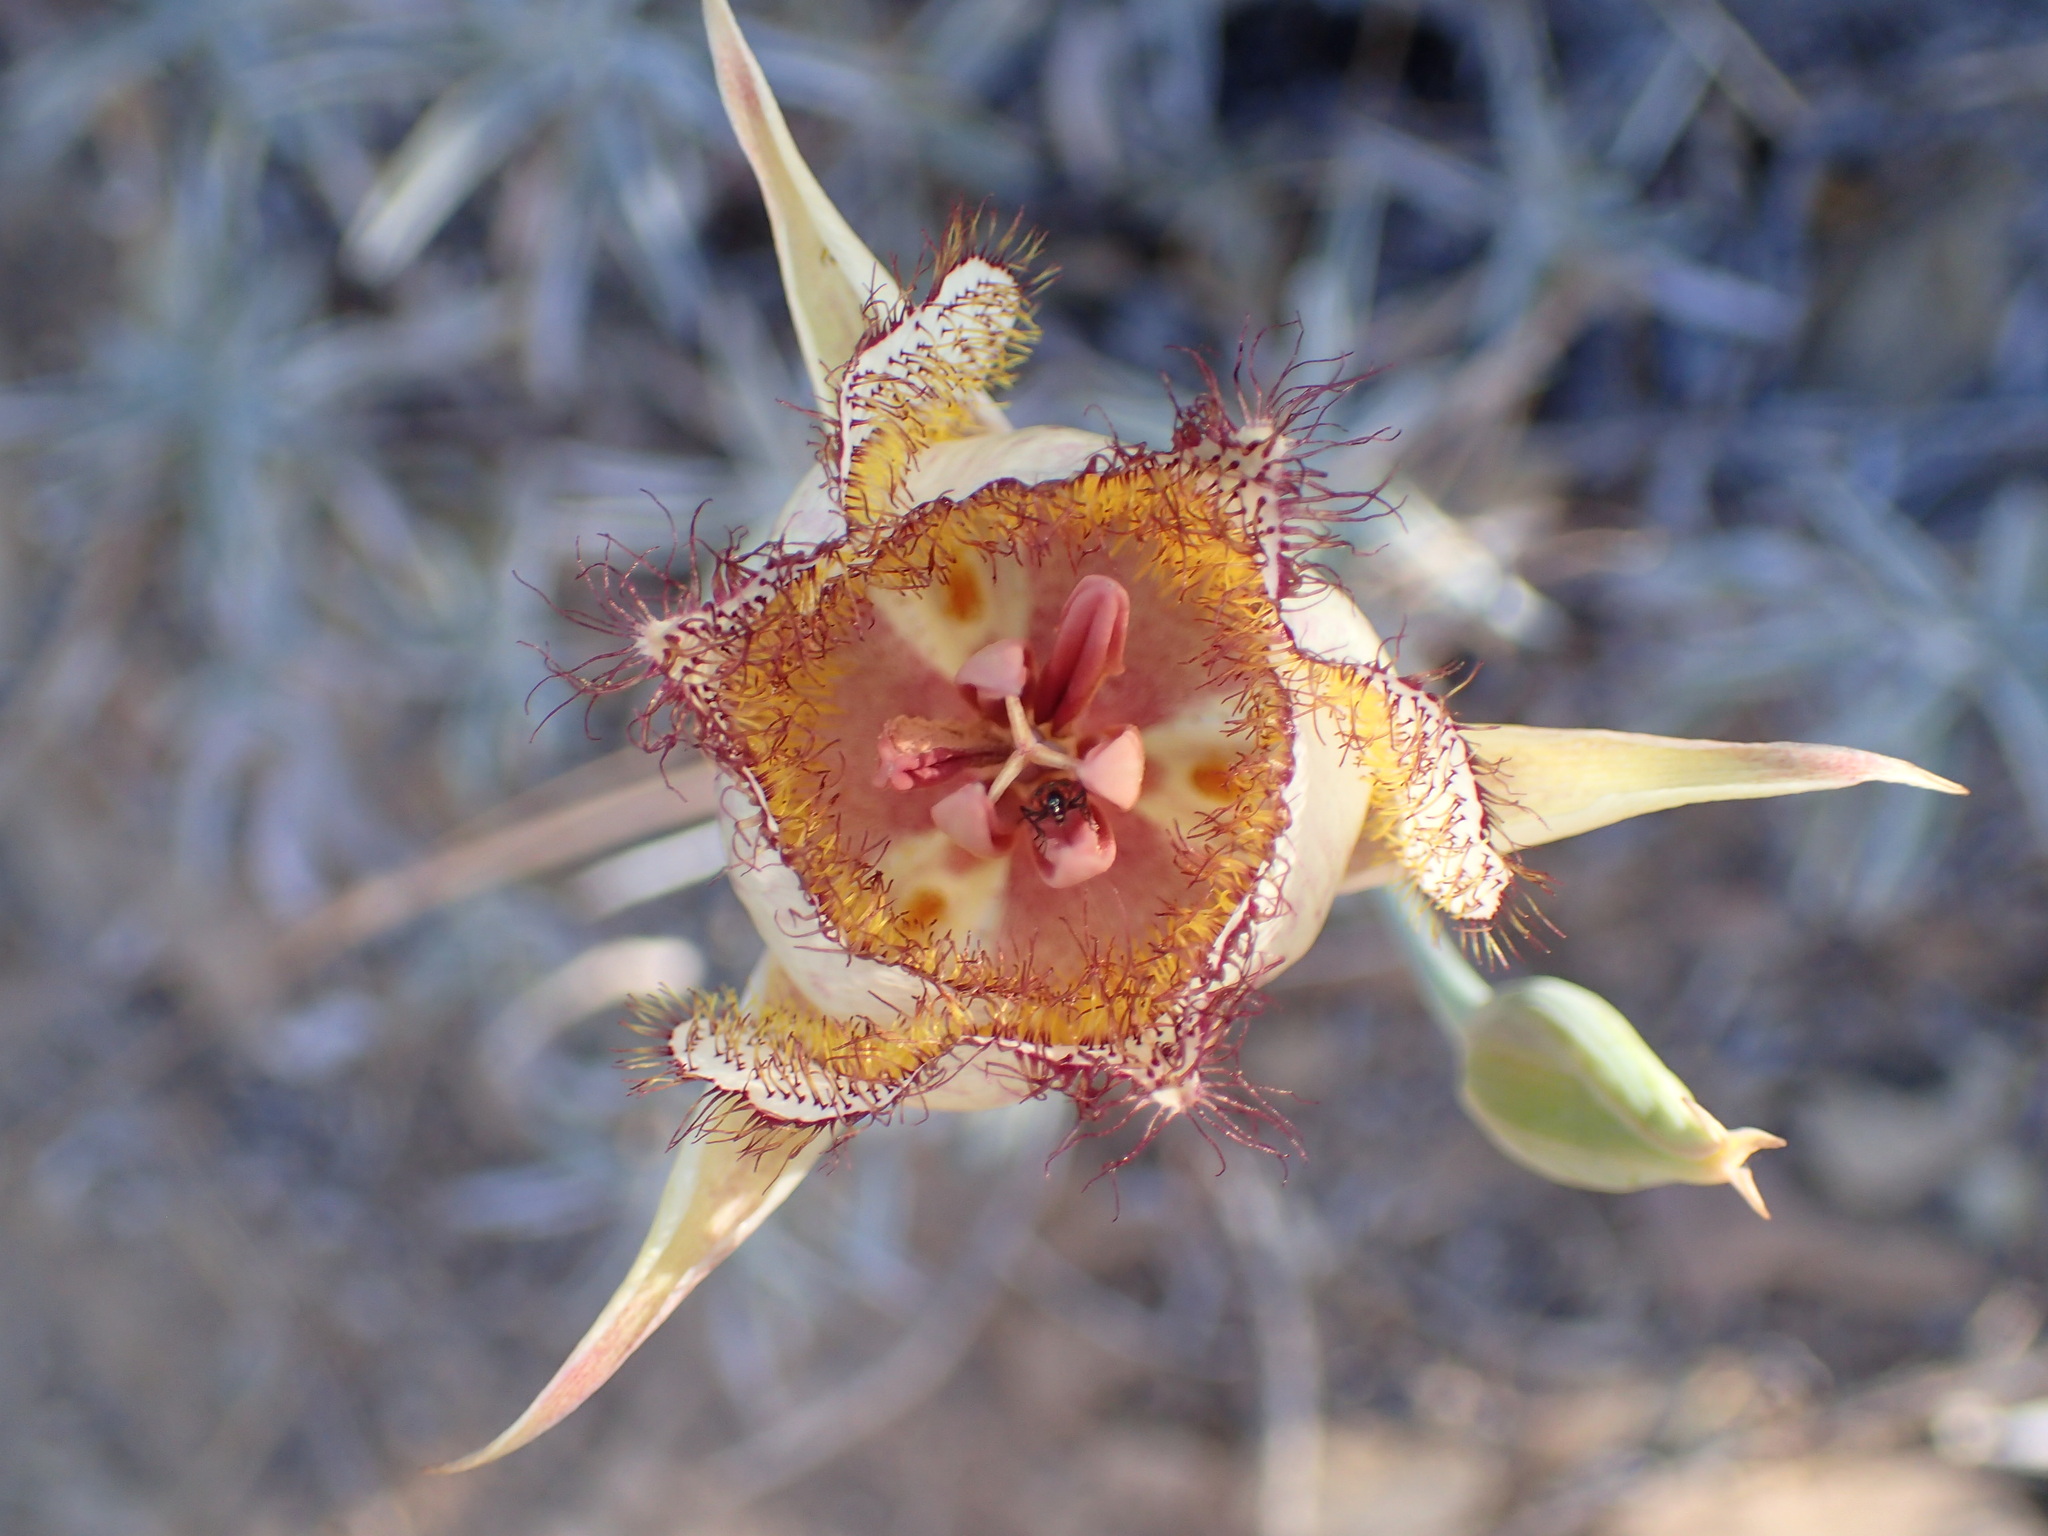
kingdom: Plantae
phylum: Tracheophyta
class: Liliopsida
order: Liliales
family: Liliaceae
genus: Calochortus
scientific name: Calochortus fimbriatus
